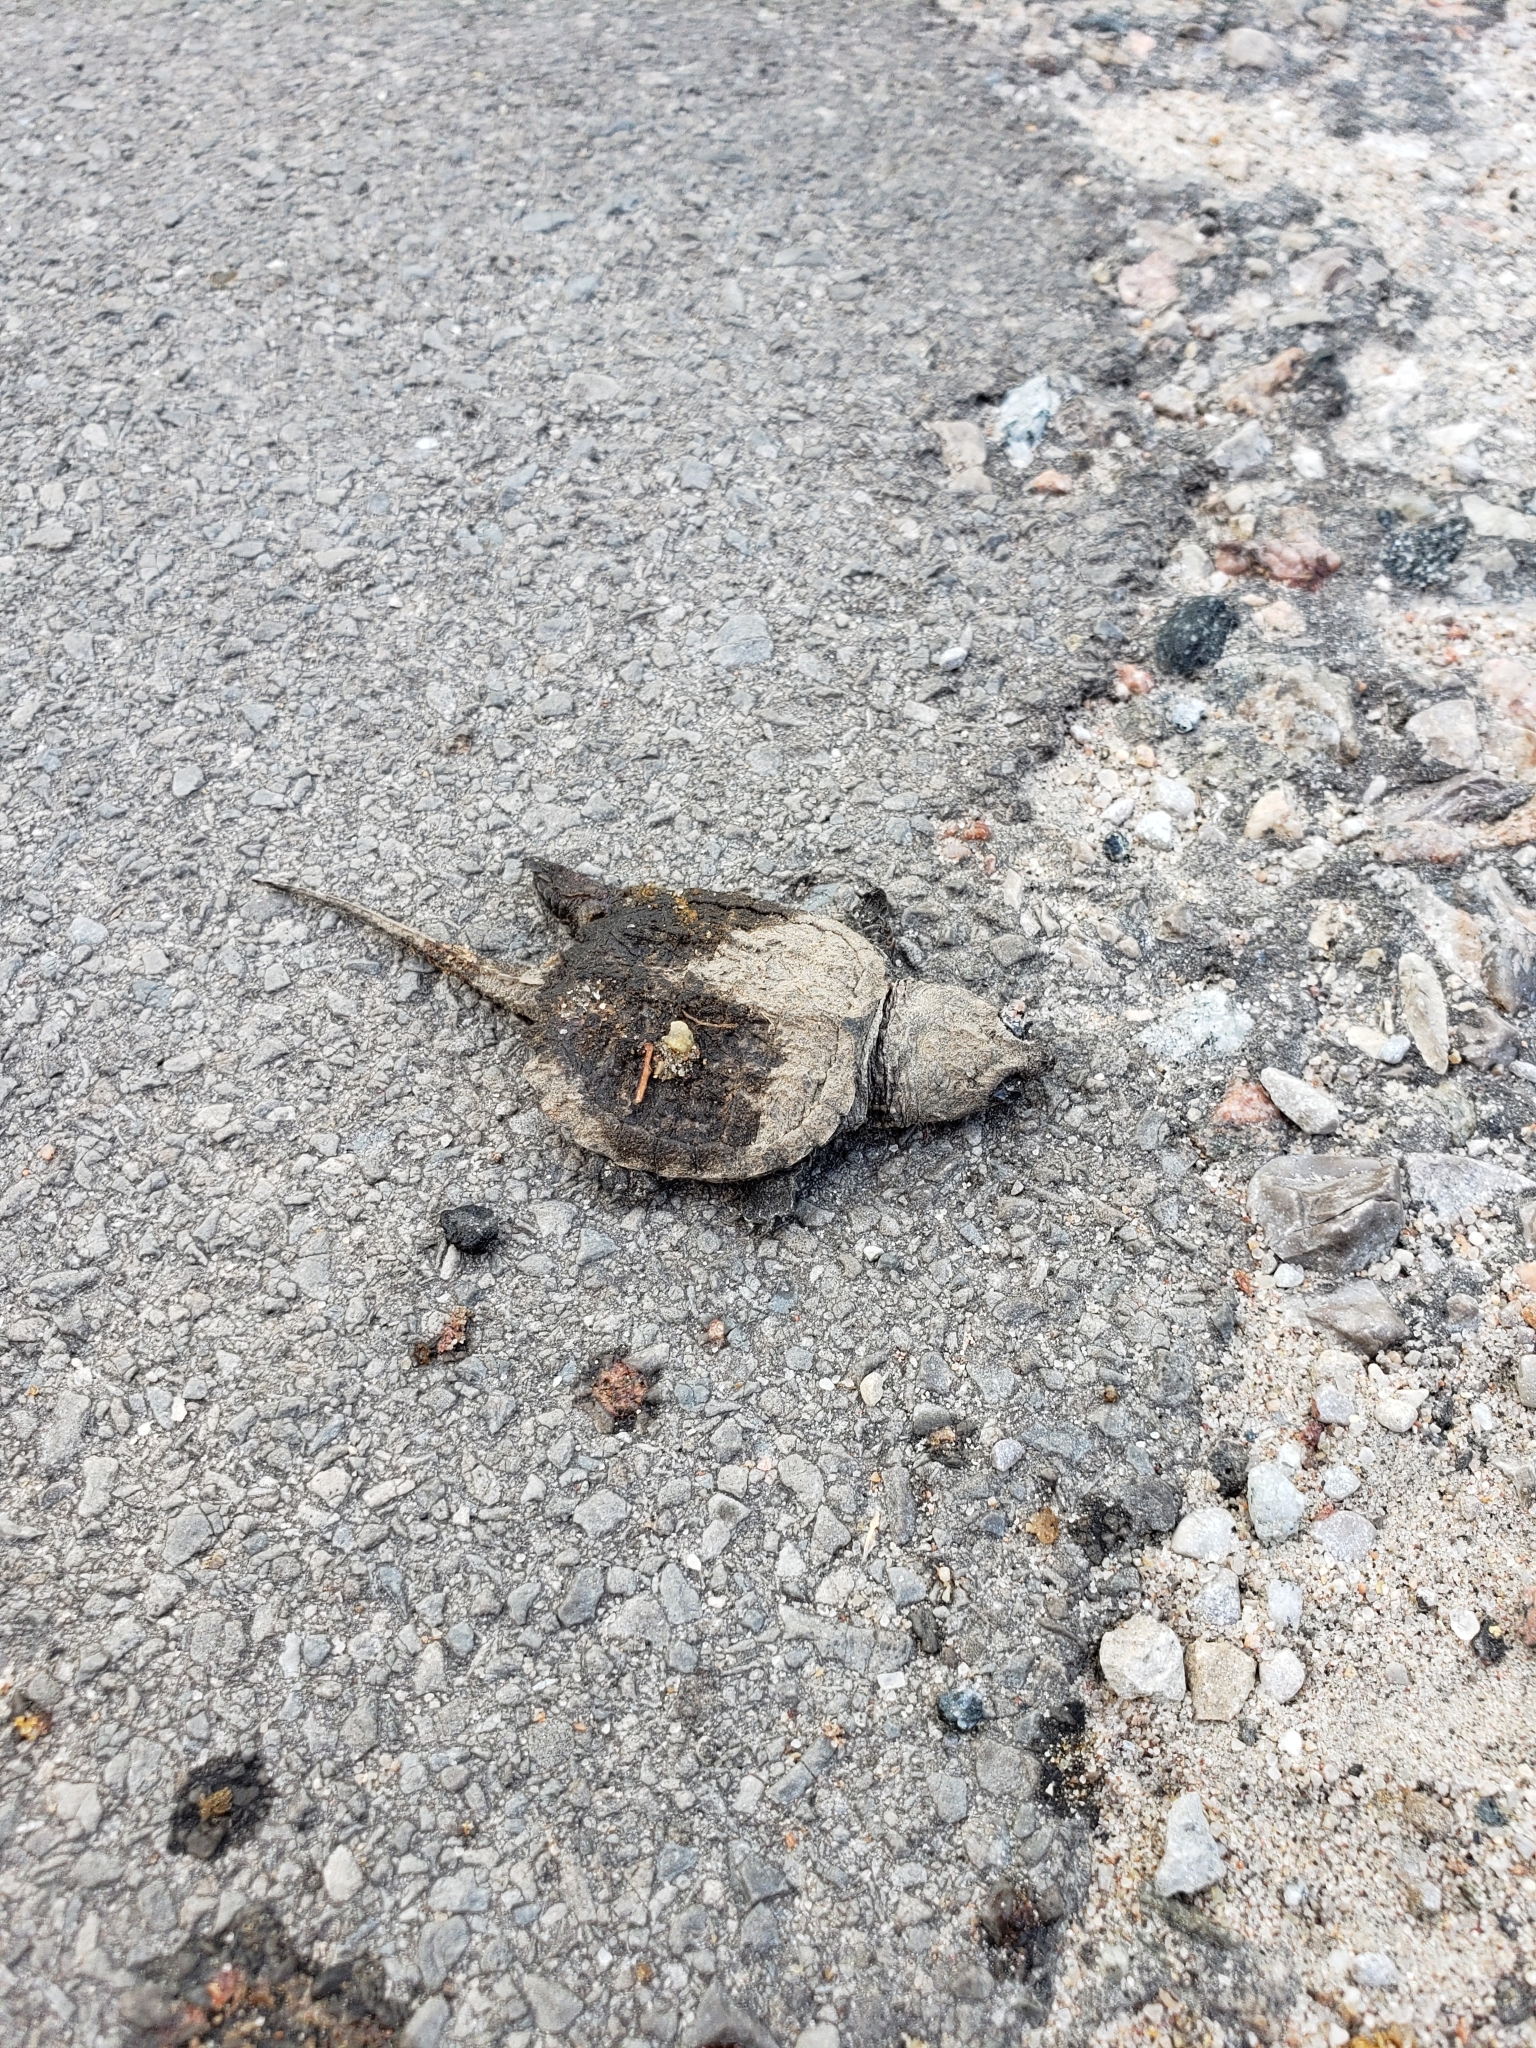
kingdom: Animalia
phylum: Chordata
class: Testudines
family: Chelydridae
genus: Chelydra
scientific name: Chelydra serpentina
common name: Common snapping turtle
